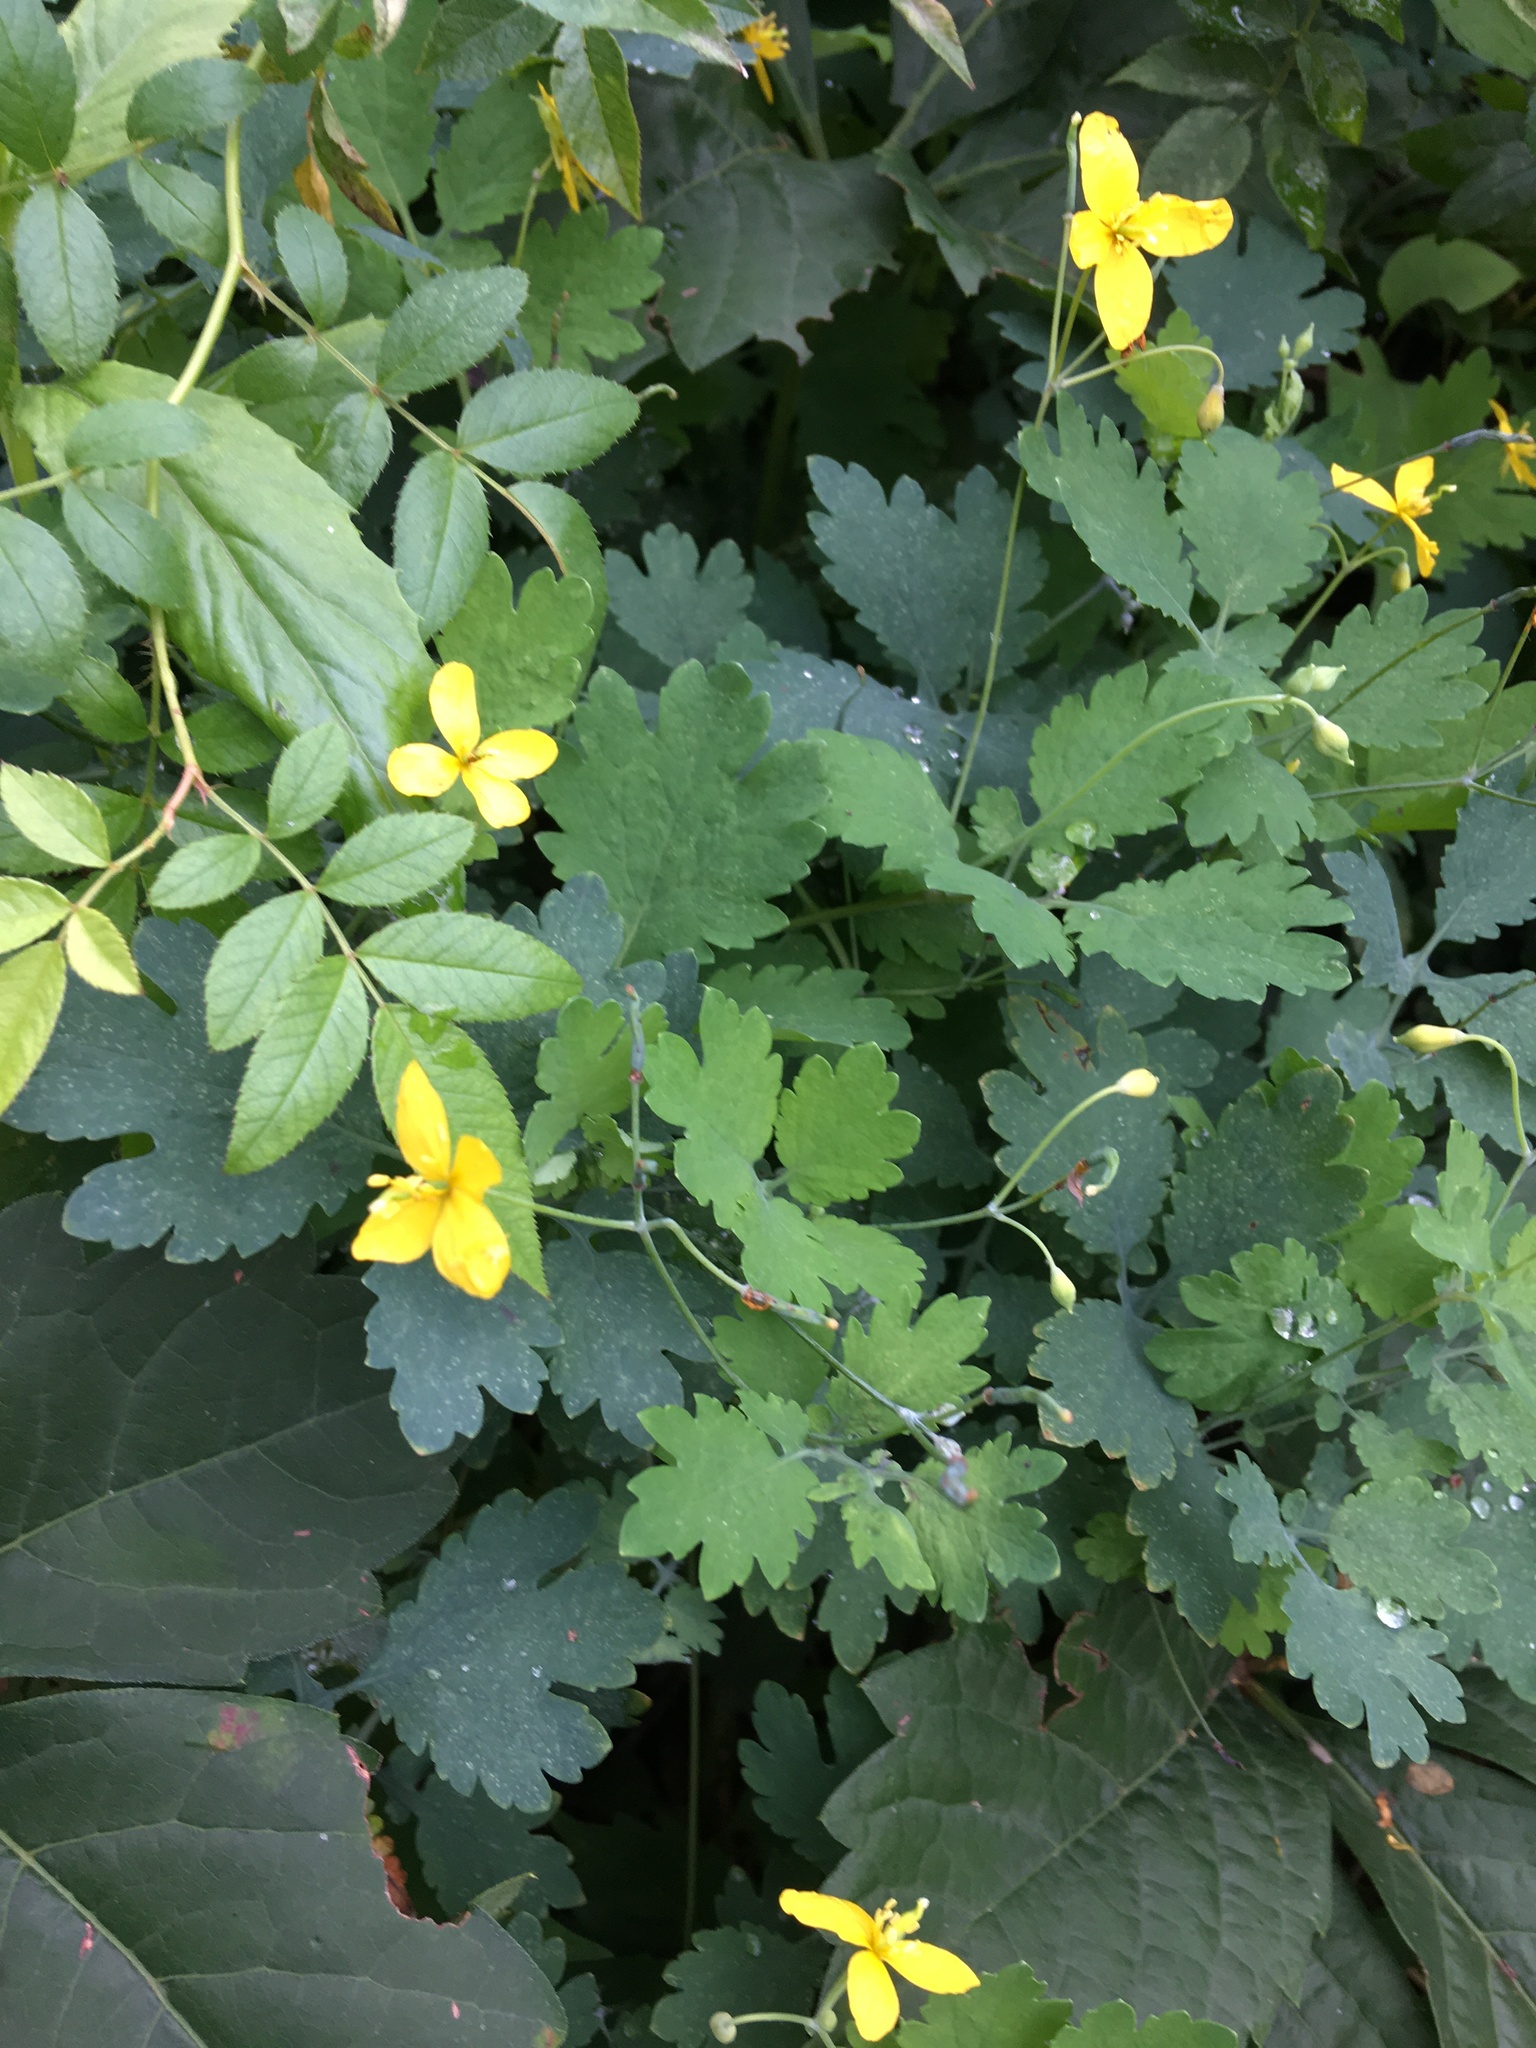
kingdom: Plantae
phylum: Tracheophyta
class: Magnoliopsida
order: Ranunculales
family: Papaveraceae
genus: Chelidonium
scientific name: Chelidonium majus
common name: Greater celandine
